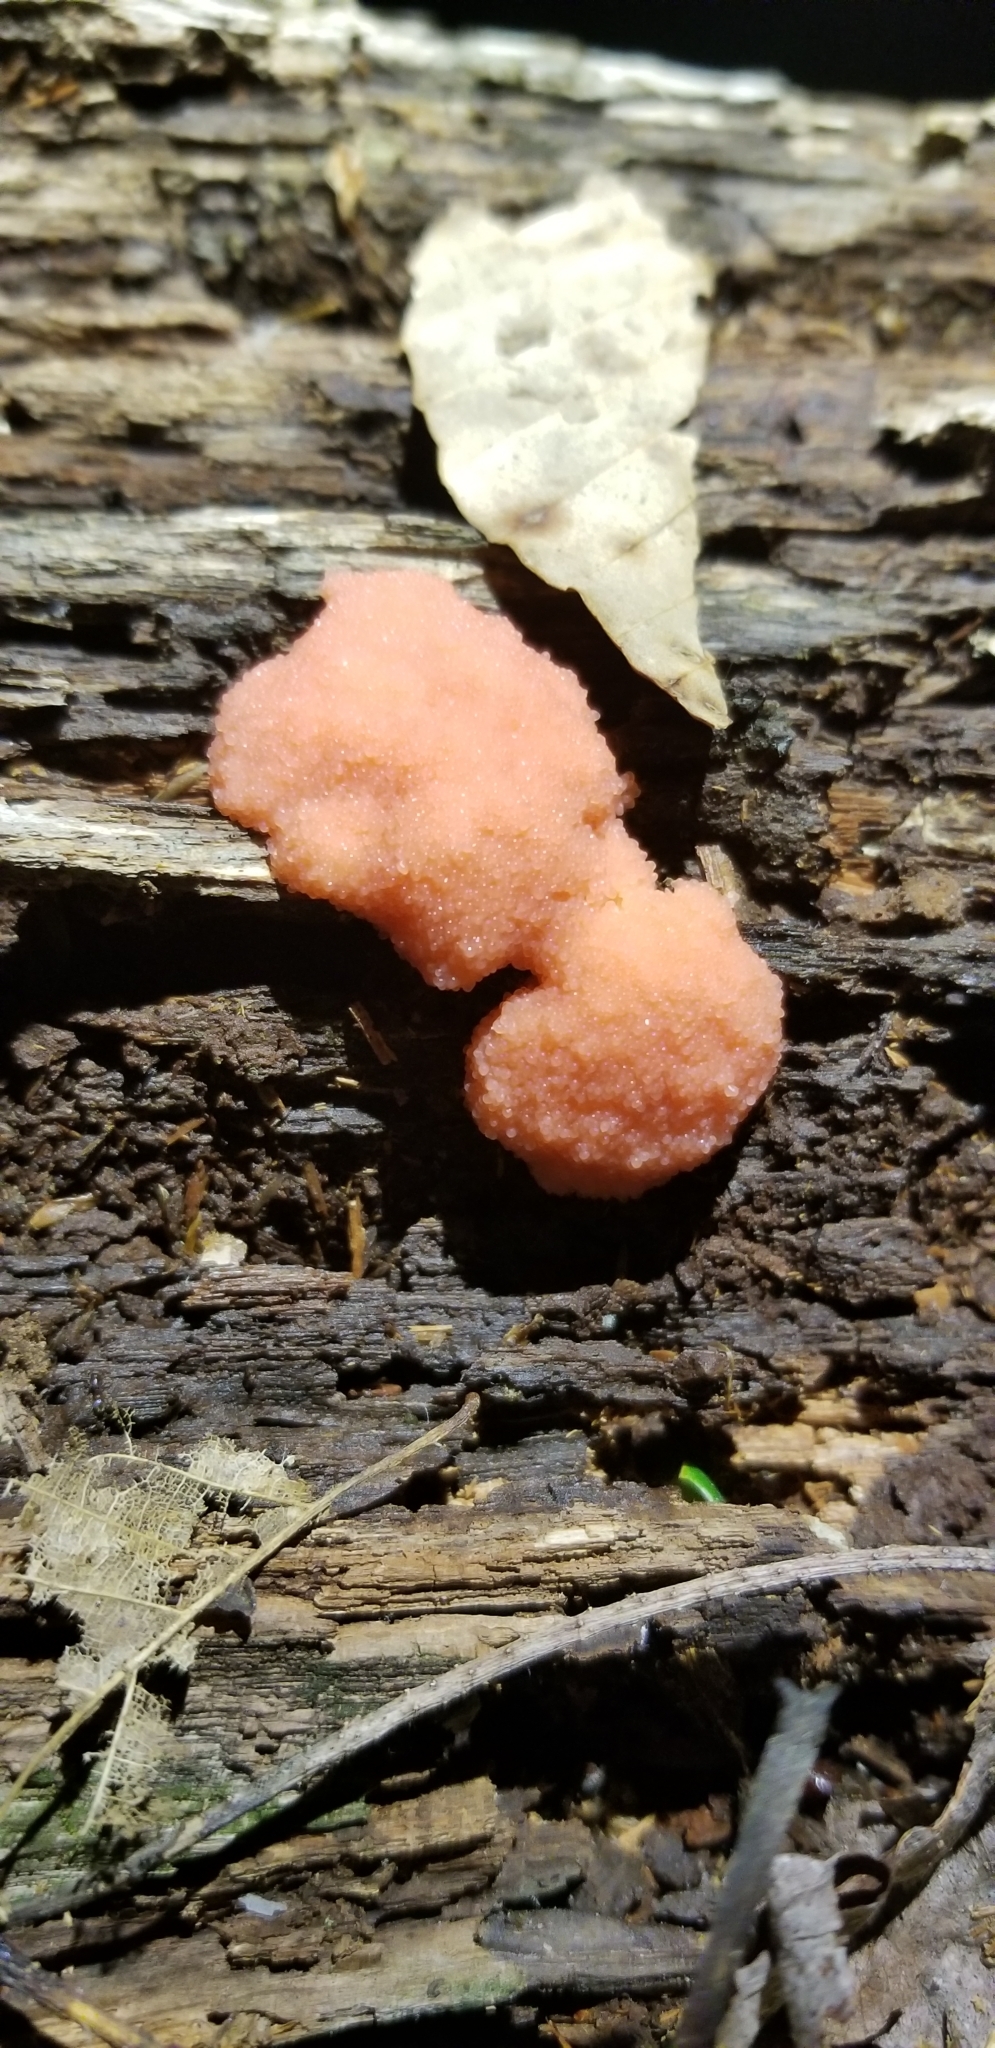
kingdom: Protozoa
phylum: Mycetozoa
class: Myxomycetes
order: Cribrariales
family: Tubiferaceae
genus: Tubifera
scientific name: Tubifera ferruginosa
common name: Red raspberry slime mold
